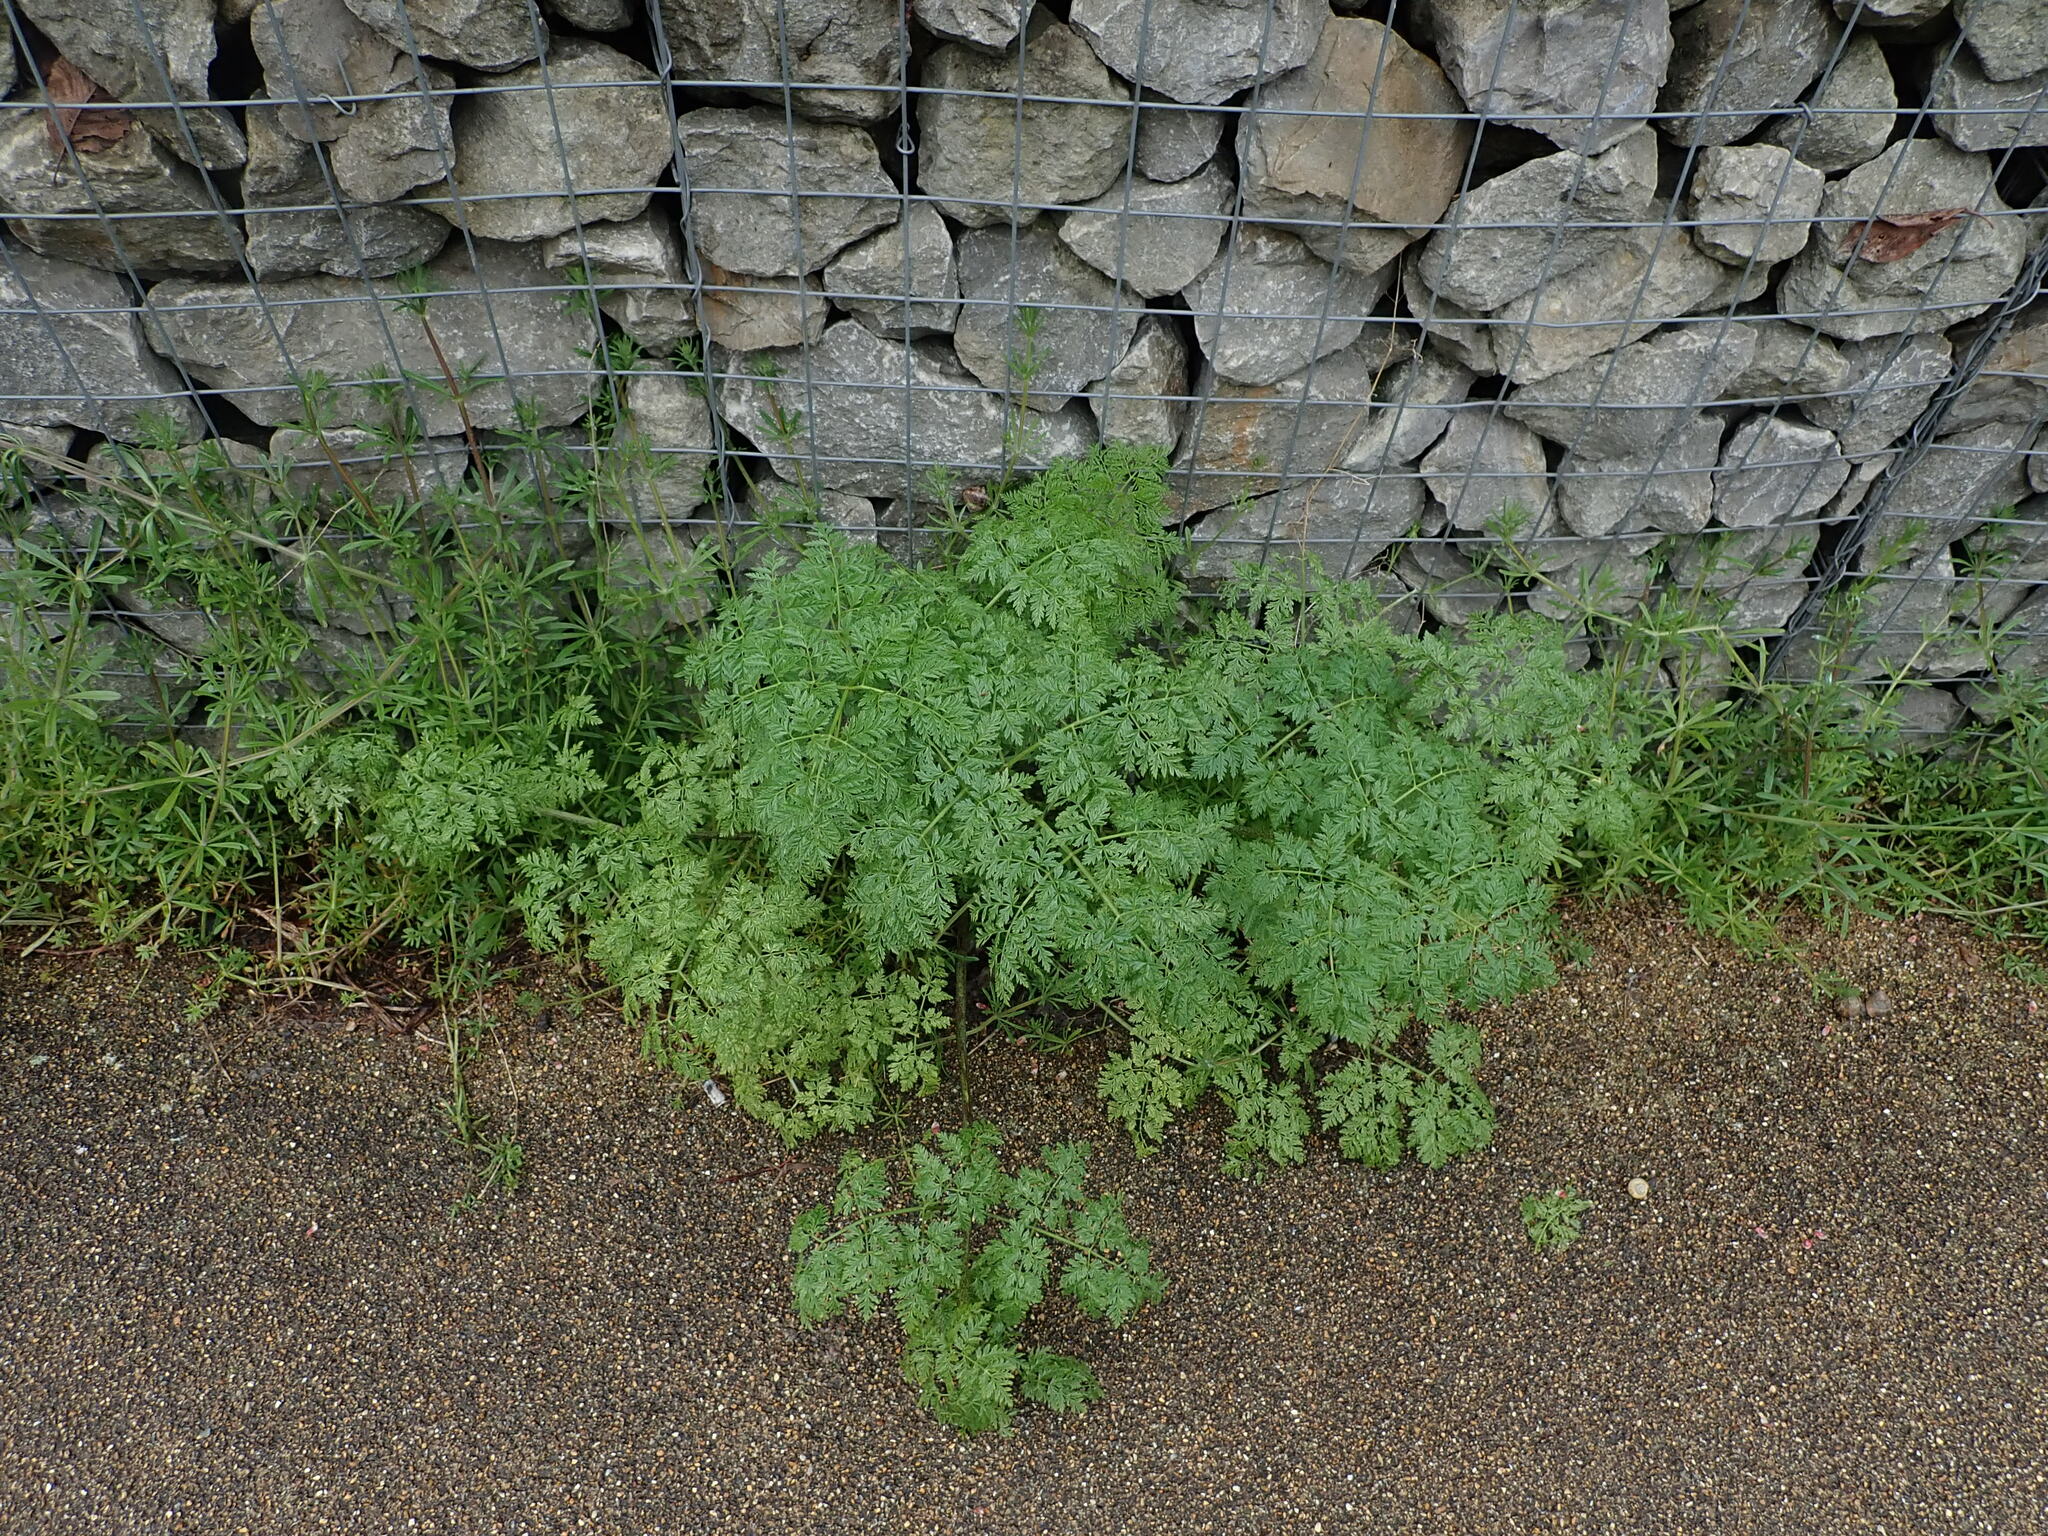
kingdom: Plantae
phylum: Tracheophyta
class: Magnoliopsida
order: Apiales
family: Apiaceae
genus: Conium
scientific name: Conium maculatum
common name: Hemlock
